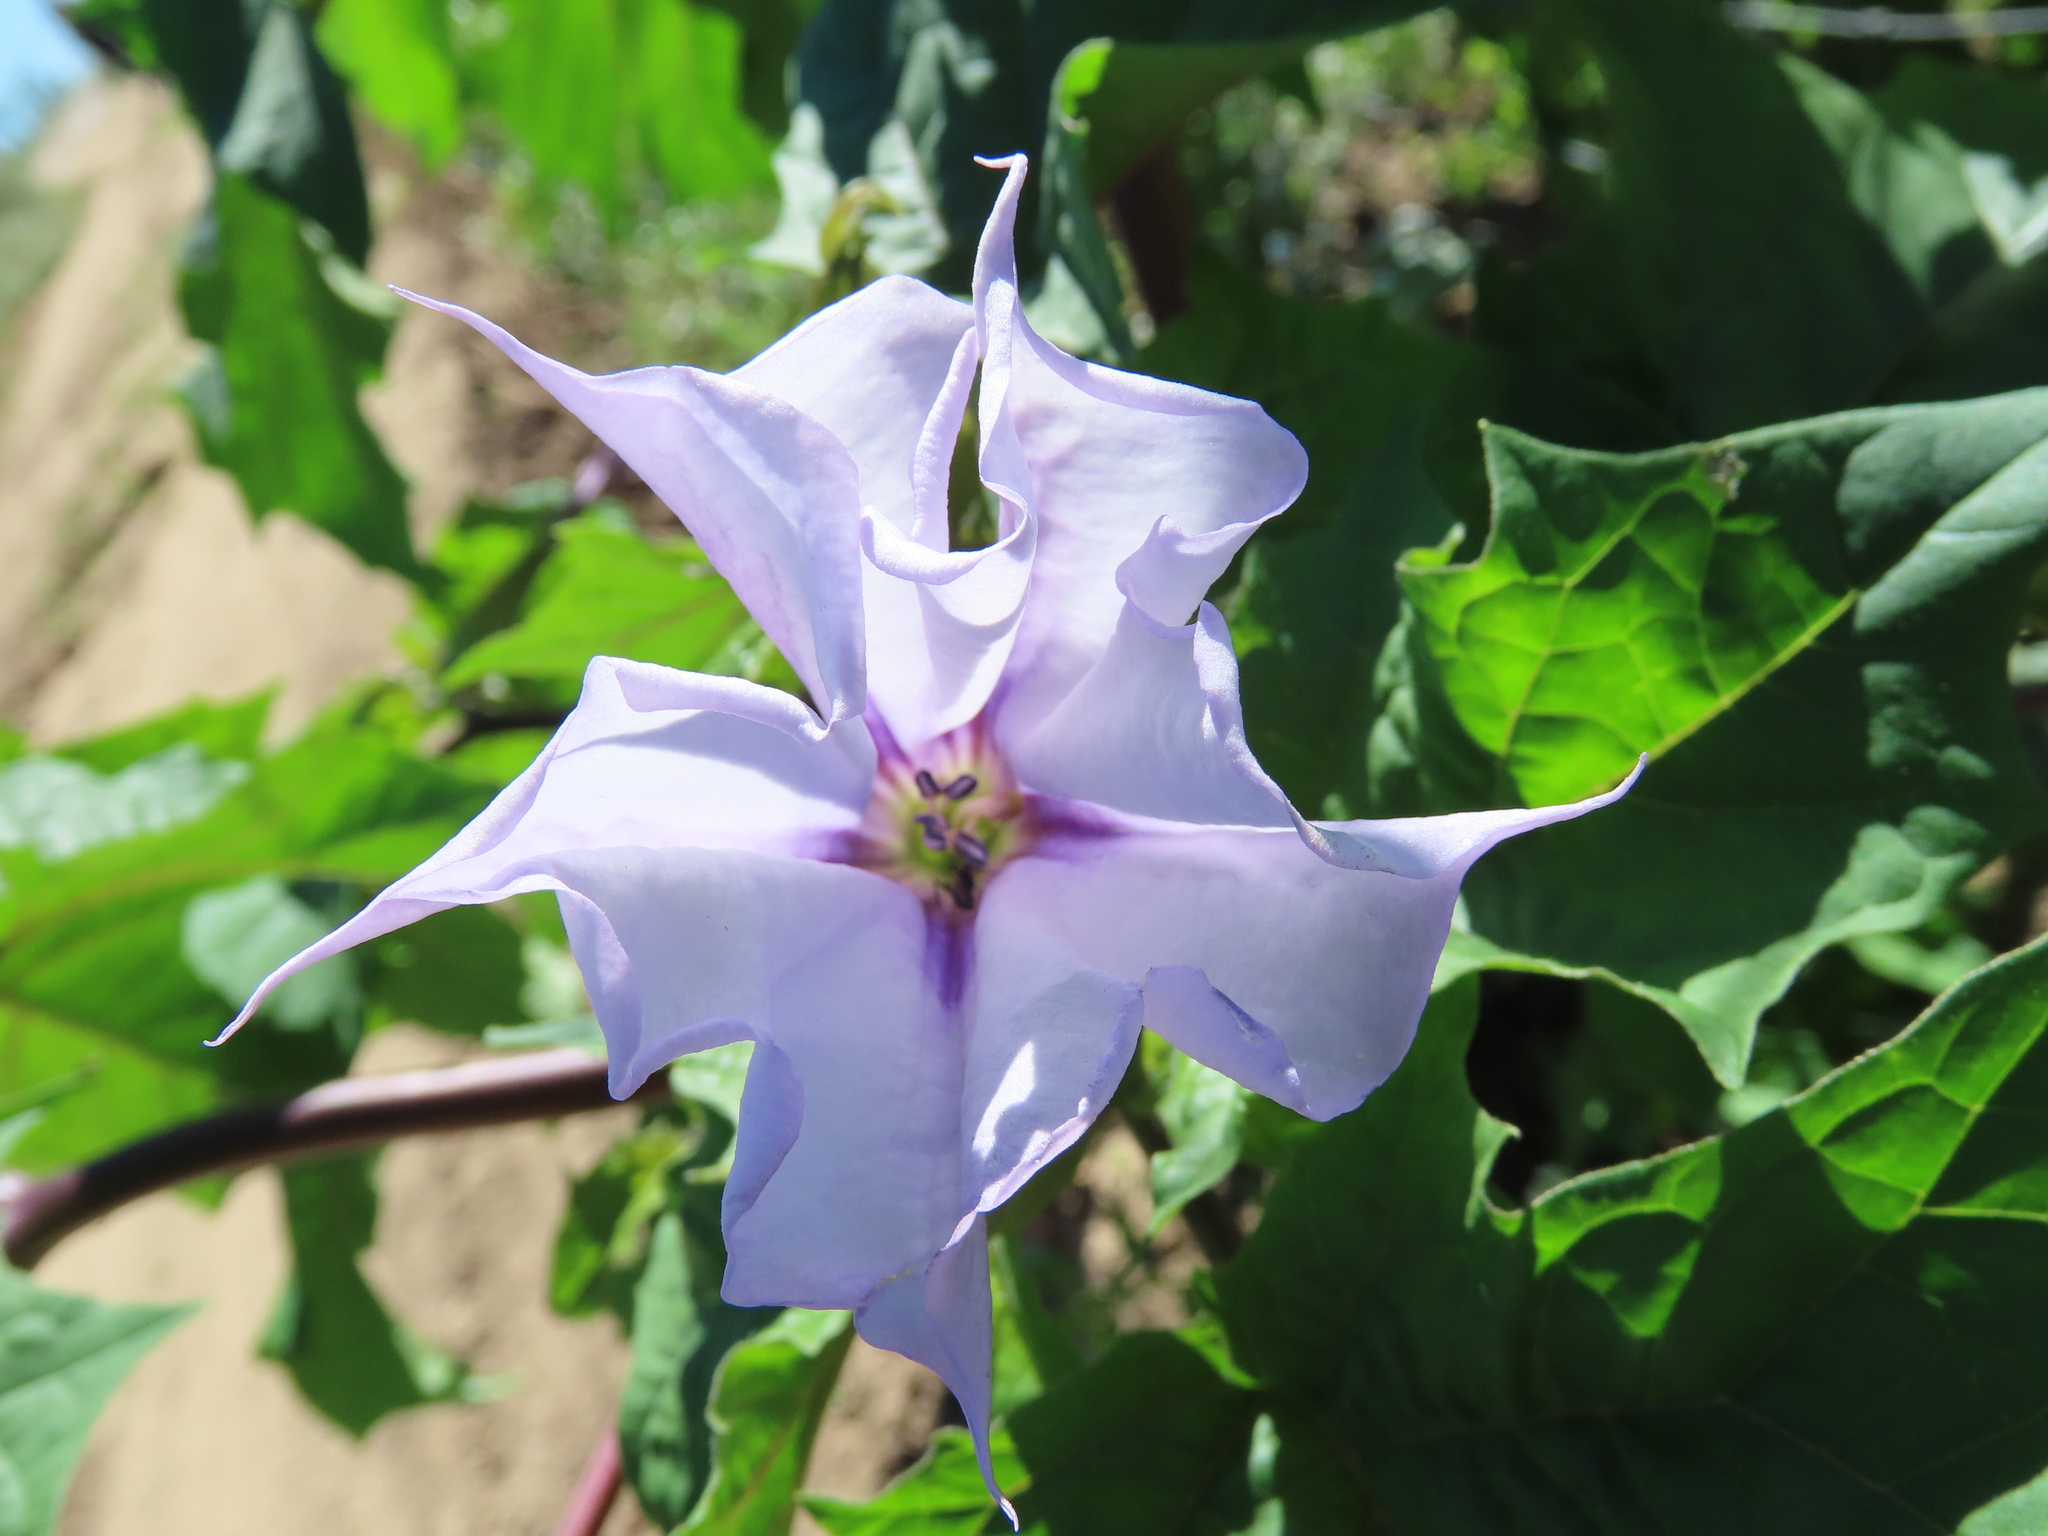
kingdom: Plantae
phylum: Tracheophyta
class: Magnoliopsida
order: Solanales
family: Solanaceae
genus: Datura
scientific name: Datura stramonium
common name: Thorn-apple
